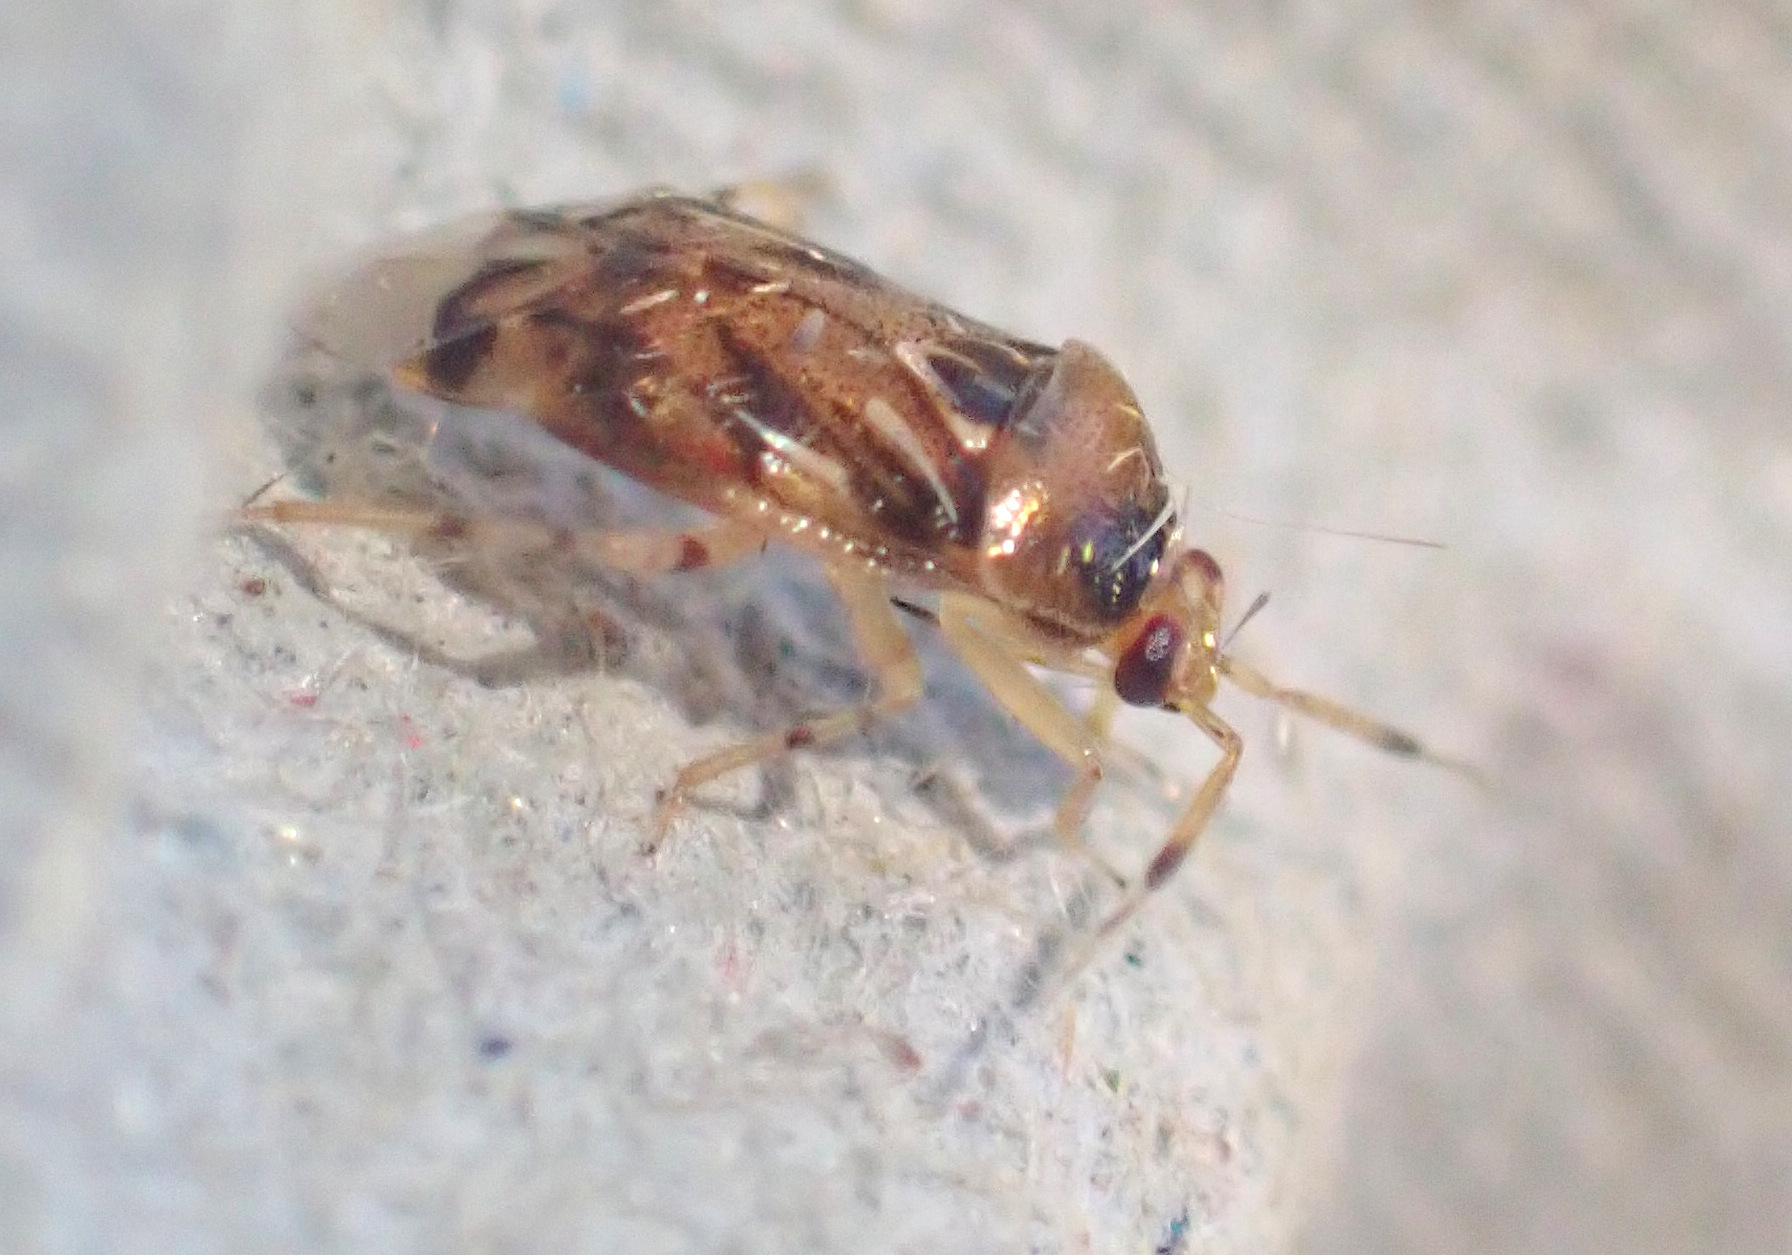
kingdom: Animalia
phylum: Arthropoda
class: Insecta
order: Hemiptera
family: Miridae
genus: Deraeocoris
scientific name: Deraeocoris lutescens
